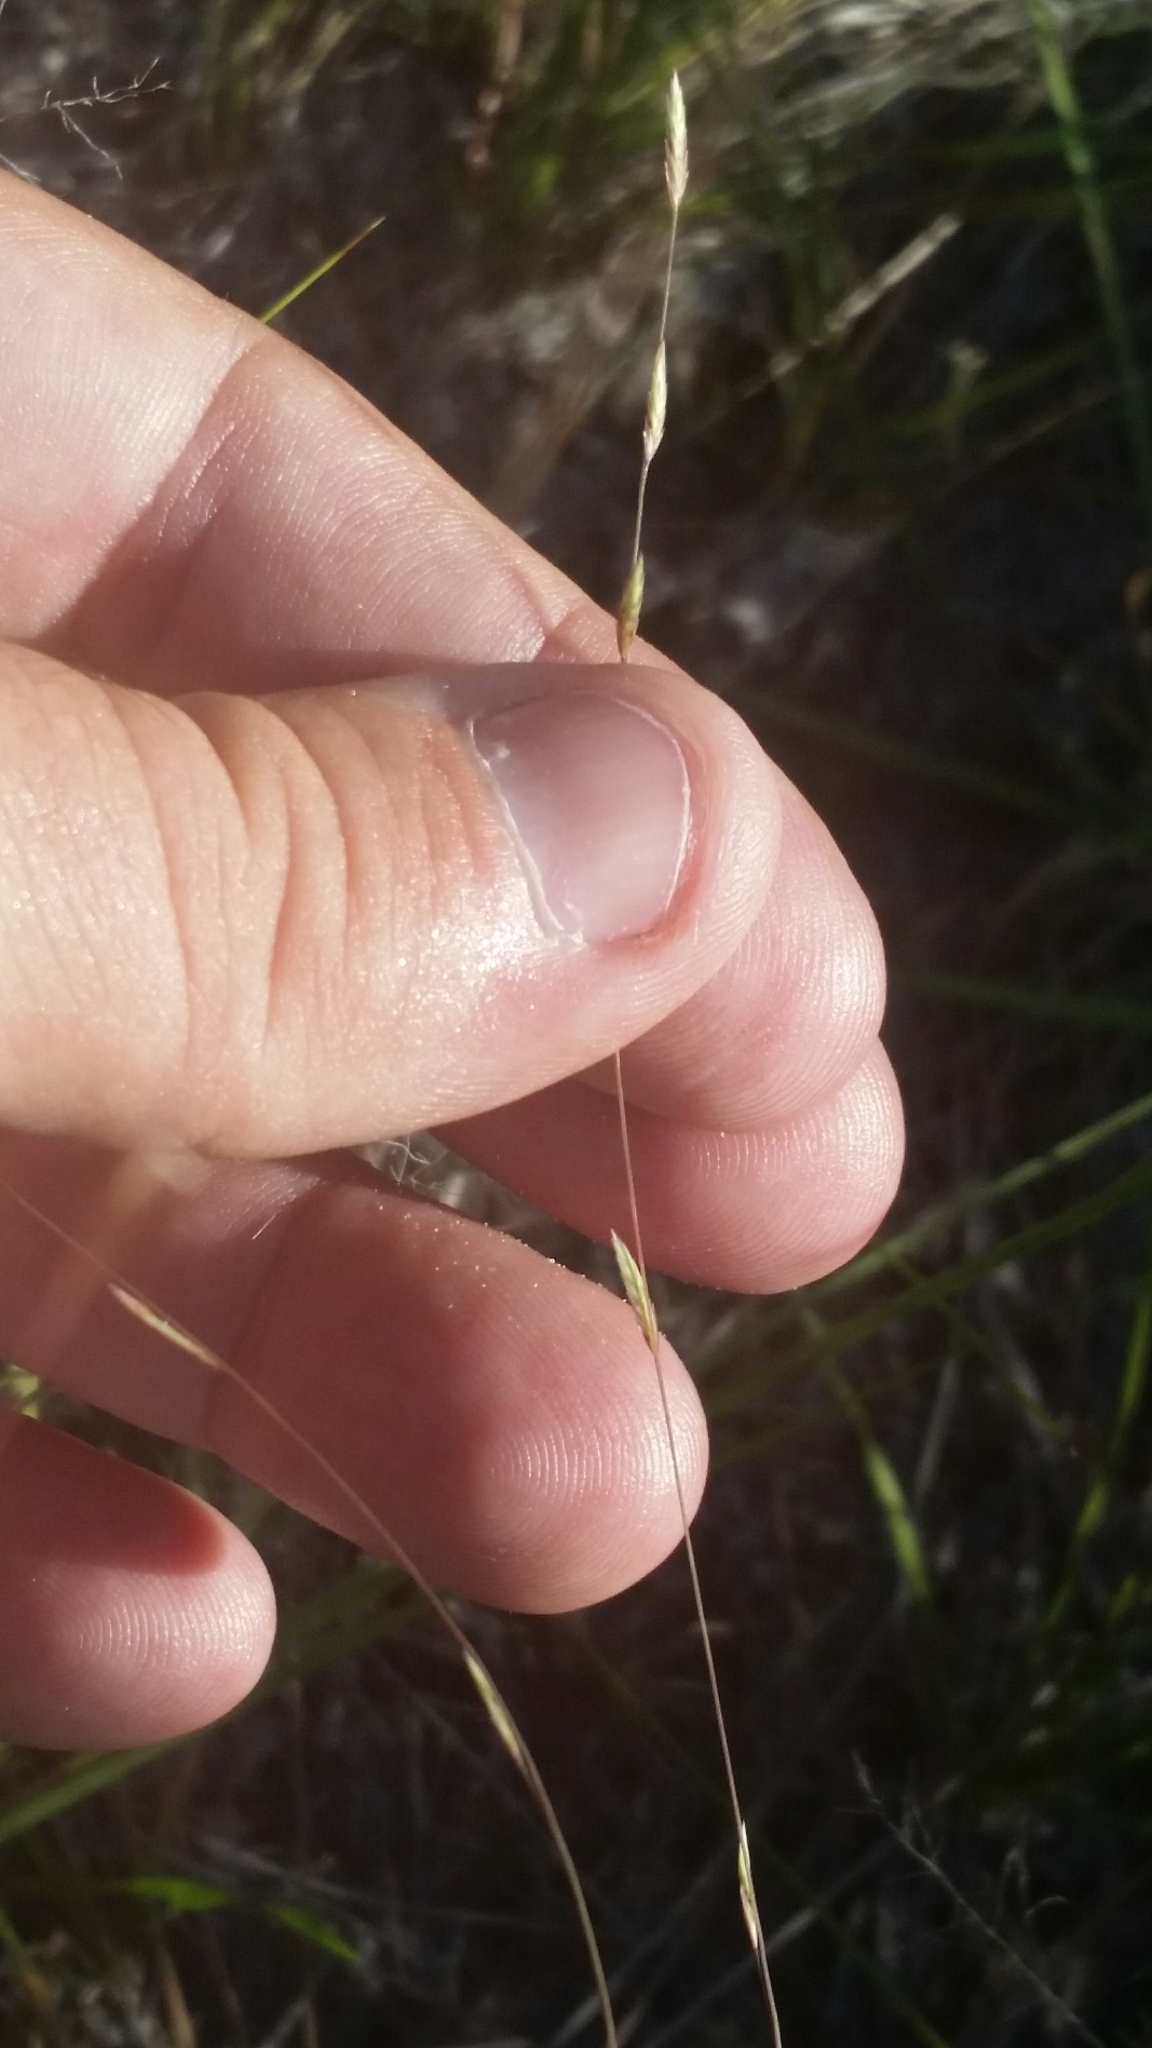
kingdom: Plantae
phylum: Tracheophyta
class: Liliopsida
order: Poales
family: Poaceae
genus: Eragrostis
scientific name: Eragrostis refracta
